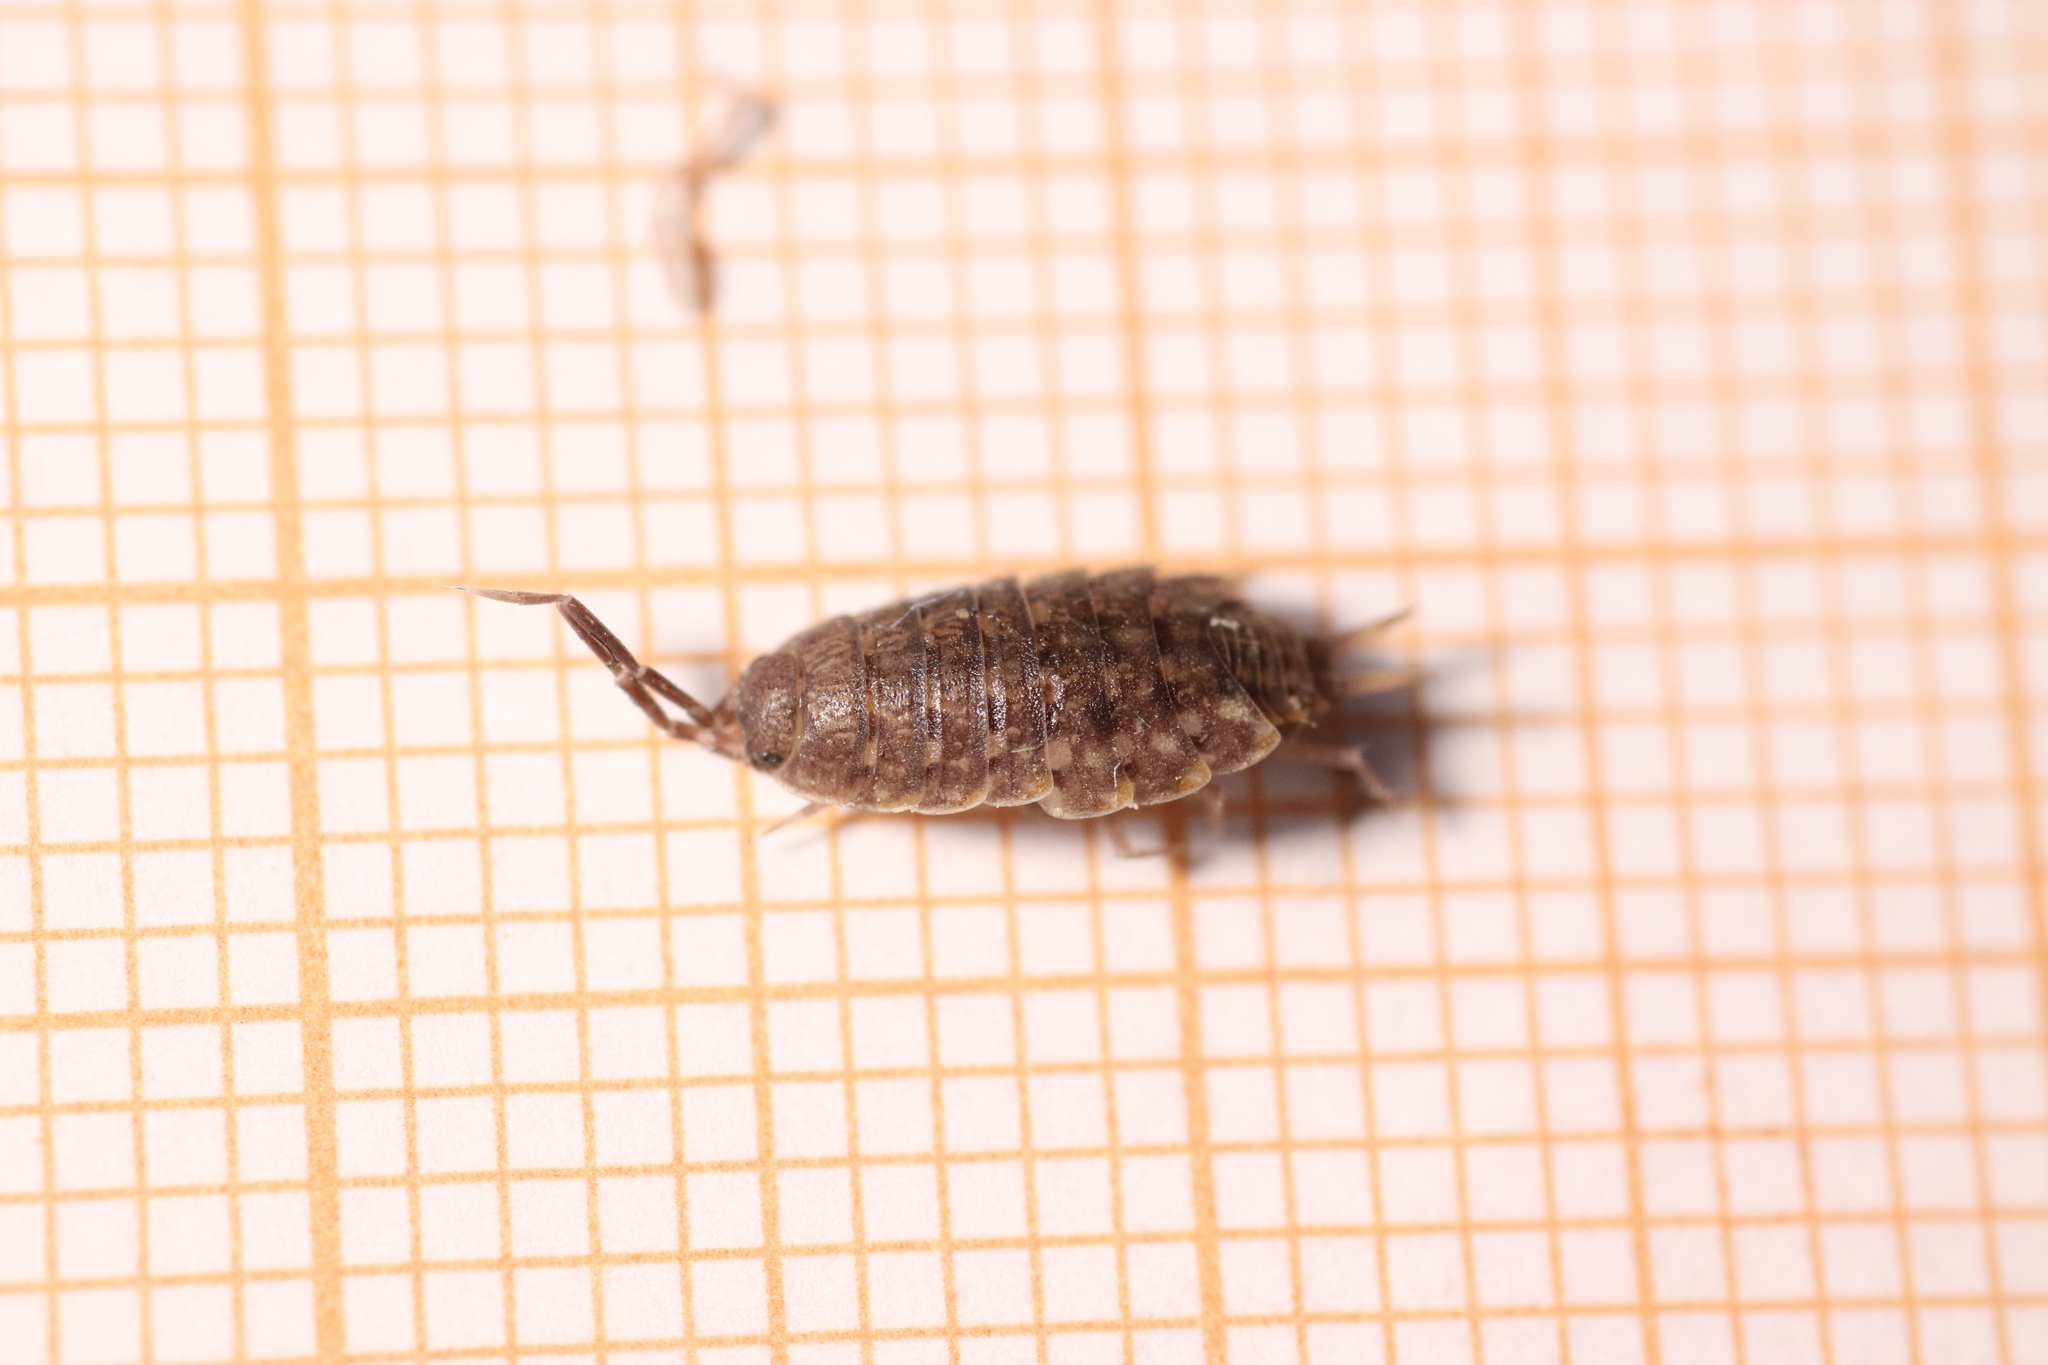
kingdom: Animalia
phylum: Arthropoda
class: Malacostraca
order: Isopoda
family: Agnaridae
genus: Orthometopon
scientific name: Orthometopon planum
